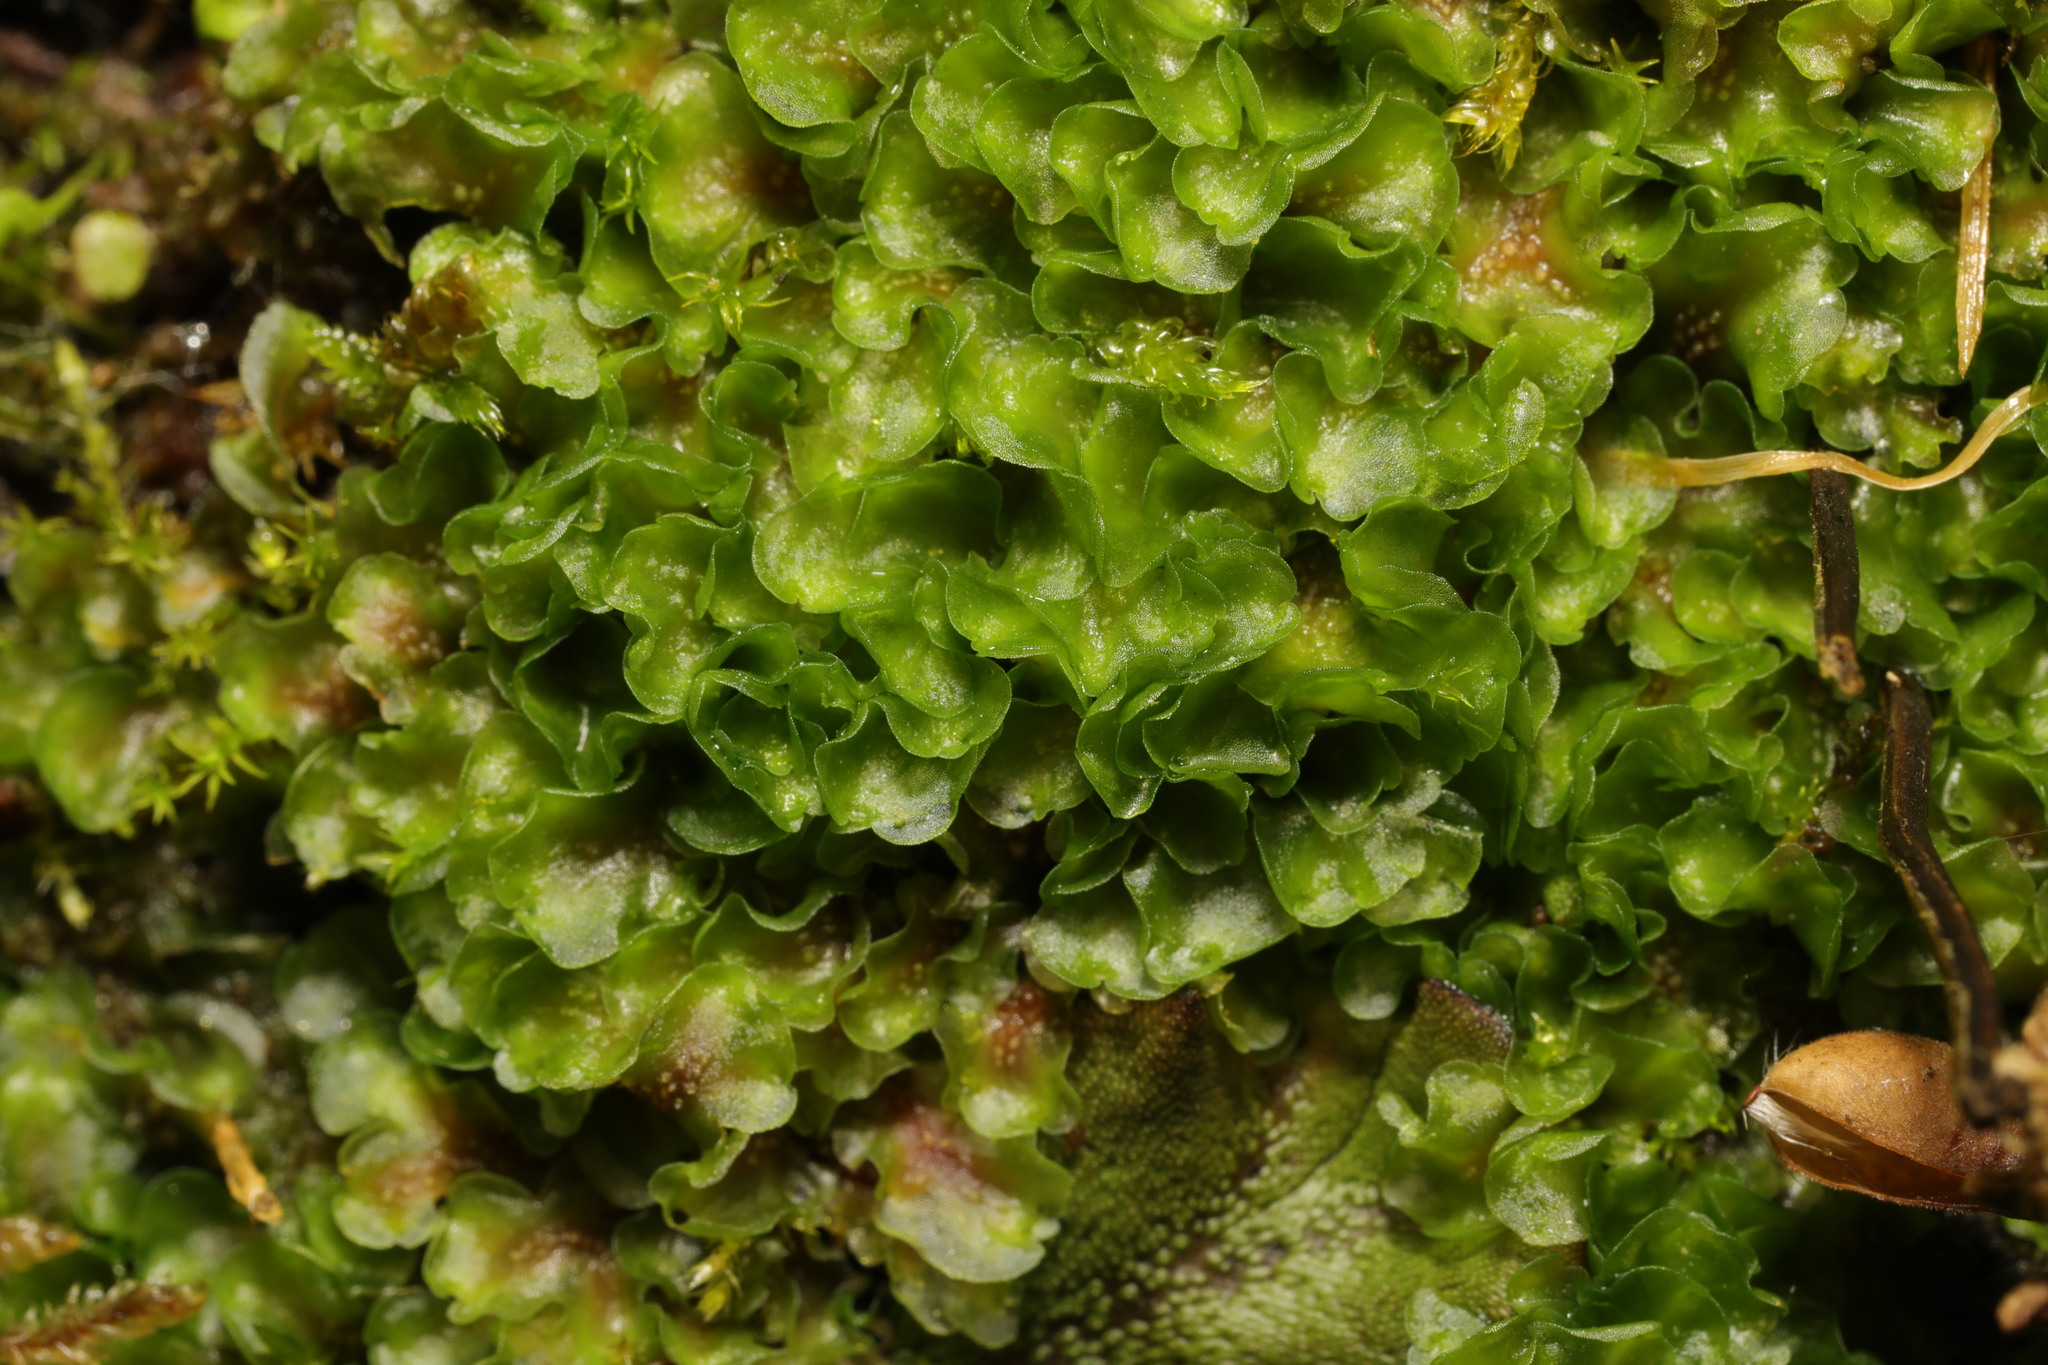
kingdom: Plantae
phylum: Marchantiophyta
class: Jungermanniopsida
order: Pelliales
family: Pelliaceae
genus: Pellia
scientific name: Pellia neesiana
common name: Nees  pellia
